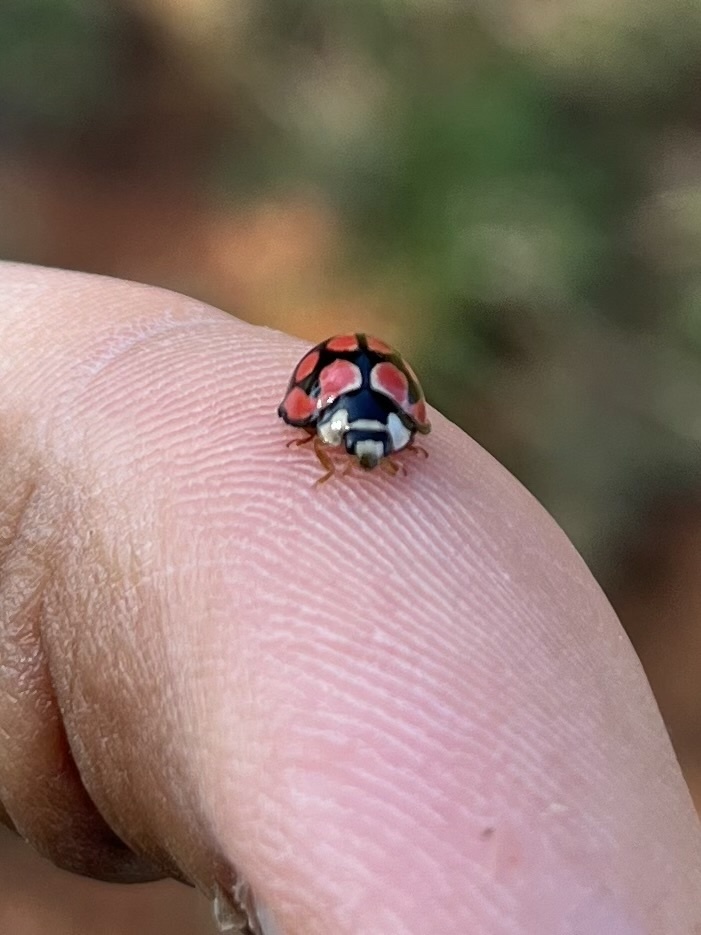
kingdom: Animalia
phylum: Arthropoda
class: Insecta
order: Coleoptera
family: Coccinellidae
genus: Cheilomenes
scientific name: Cheilomenes lunata
